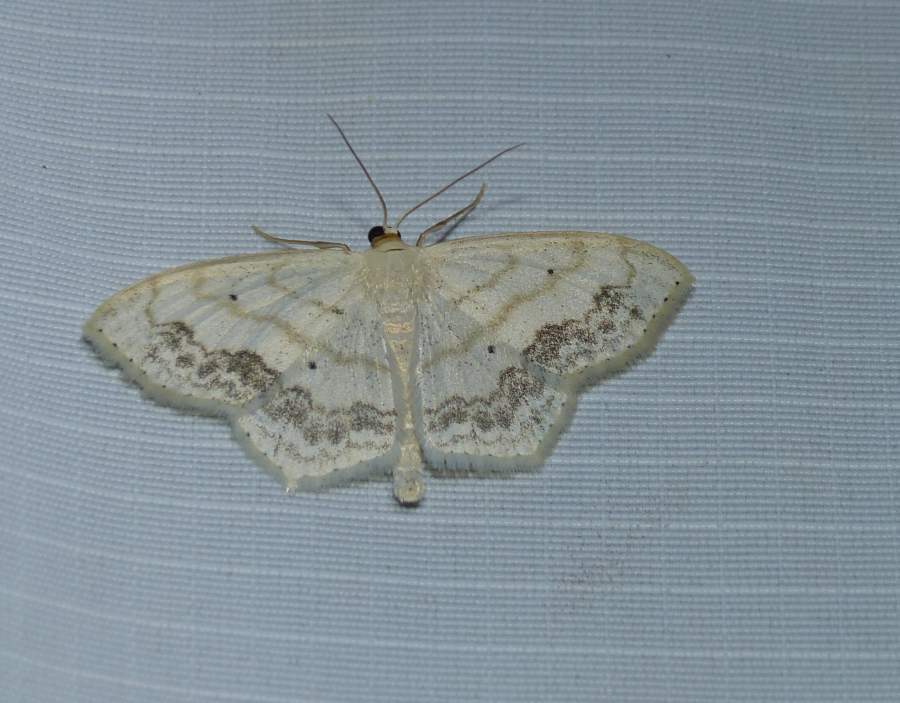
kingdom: Animalia
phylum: Arthropoda
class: Insecta
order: Lepidoptera
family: Geometridae
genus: Scopula
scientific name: Scopula limboundata
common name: Large lace border
